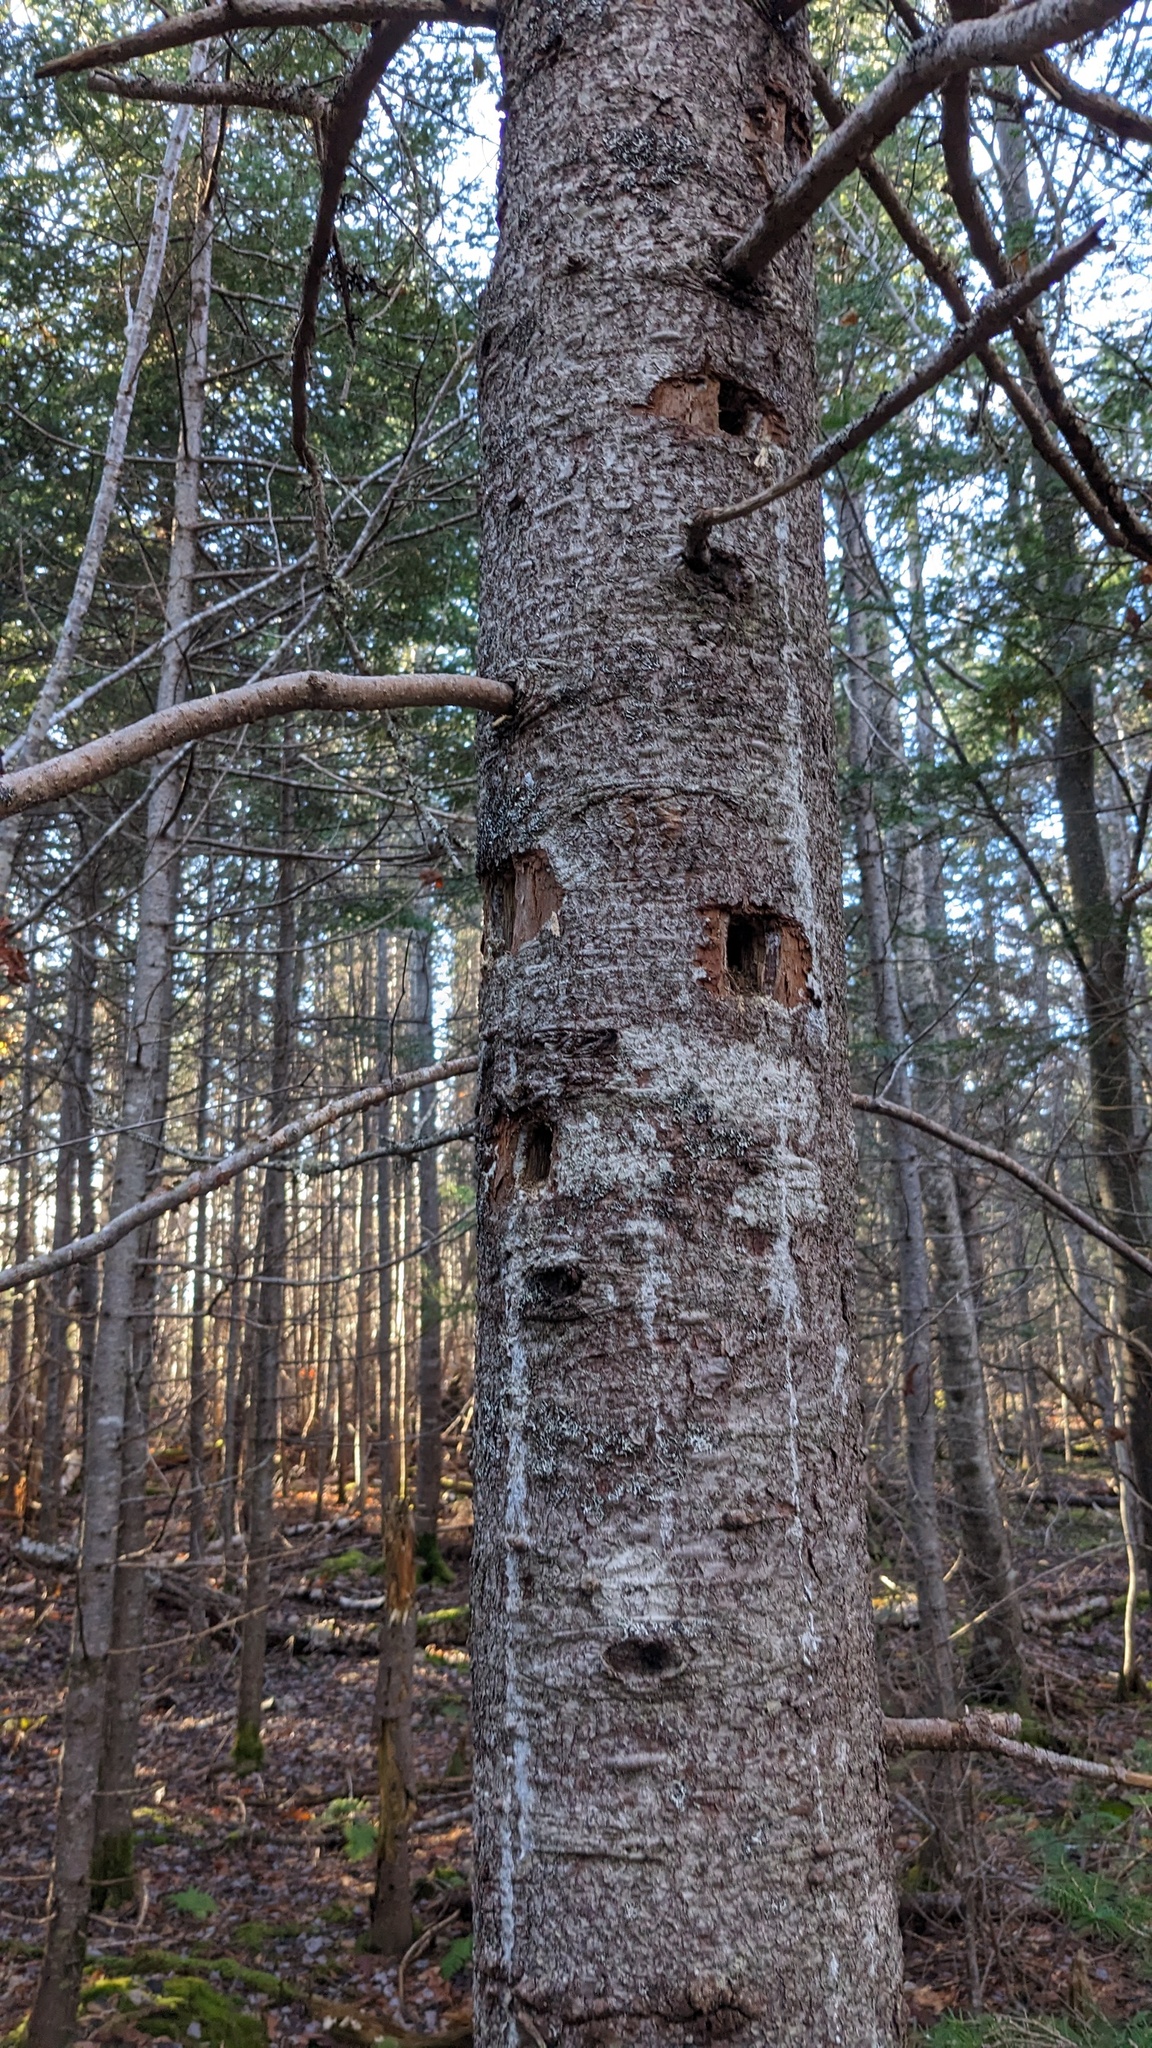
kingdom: Animalia
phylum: Chordata
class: Aves
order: Piciformes
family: Picidae
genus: Dryocopus
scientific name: Dryocopus pileatus
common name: Pileated woodpecker
